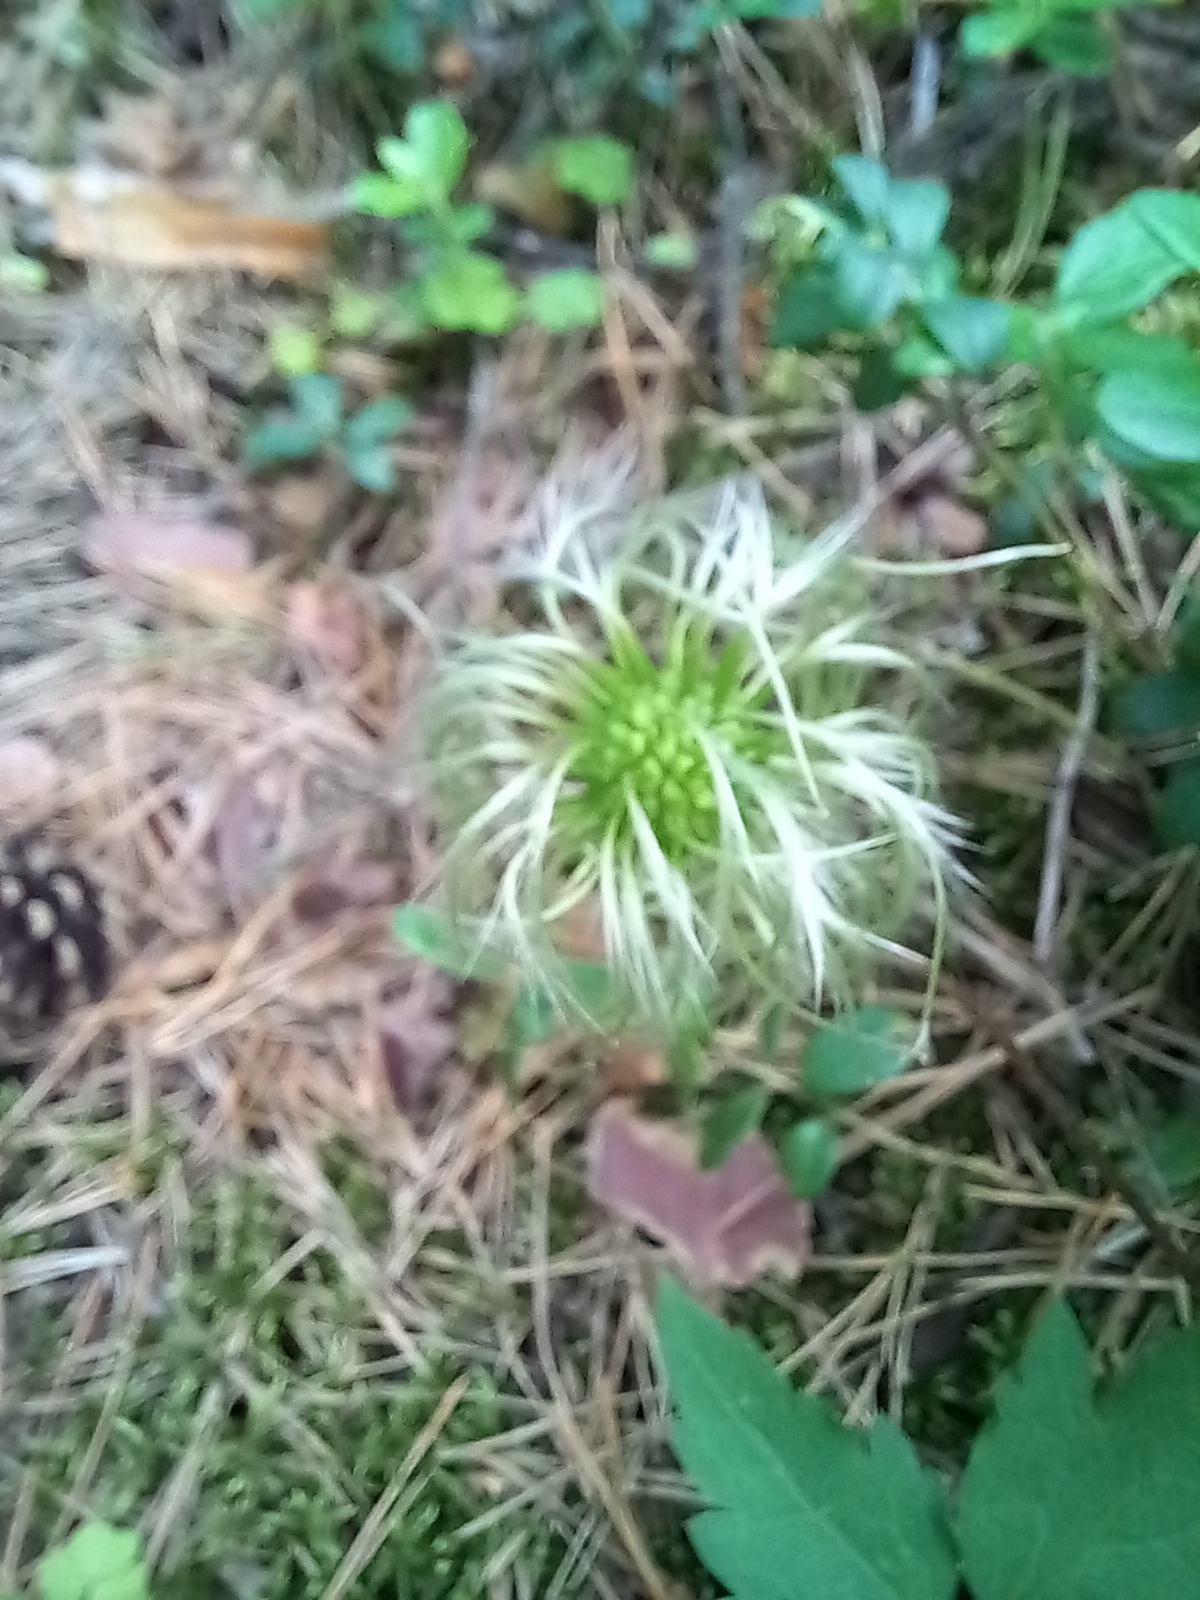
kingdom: Plantae
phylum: Tracheophyta
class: Magnoliopsida
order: Ranunculales
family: Ranunculaceae
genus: Clematis
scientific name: Clematis sibirica
